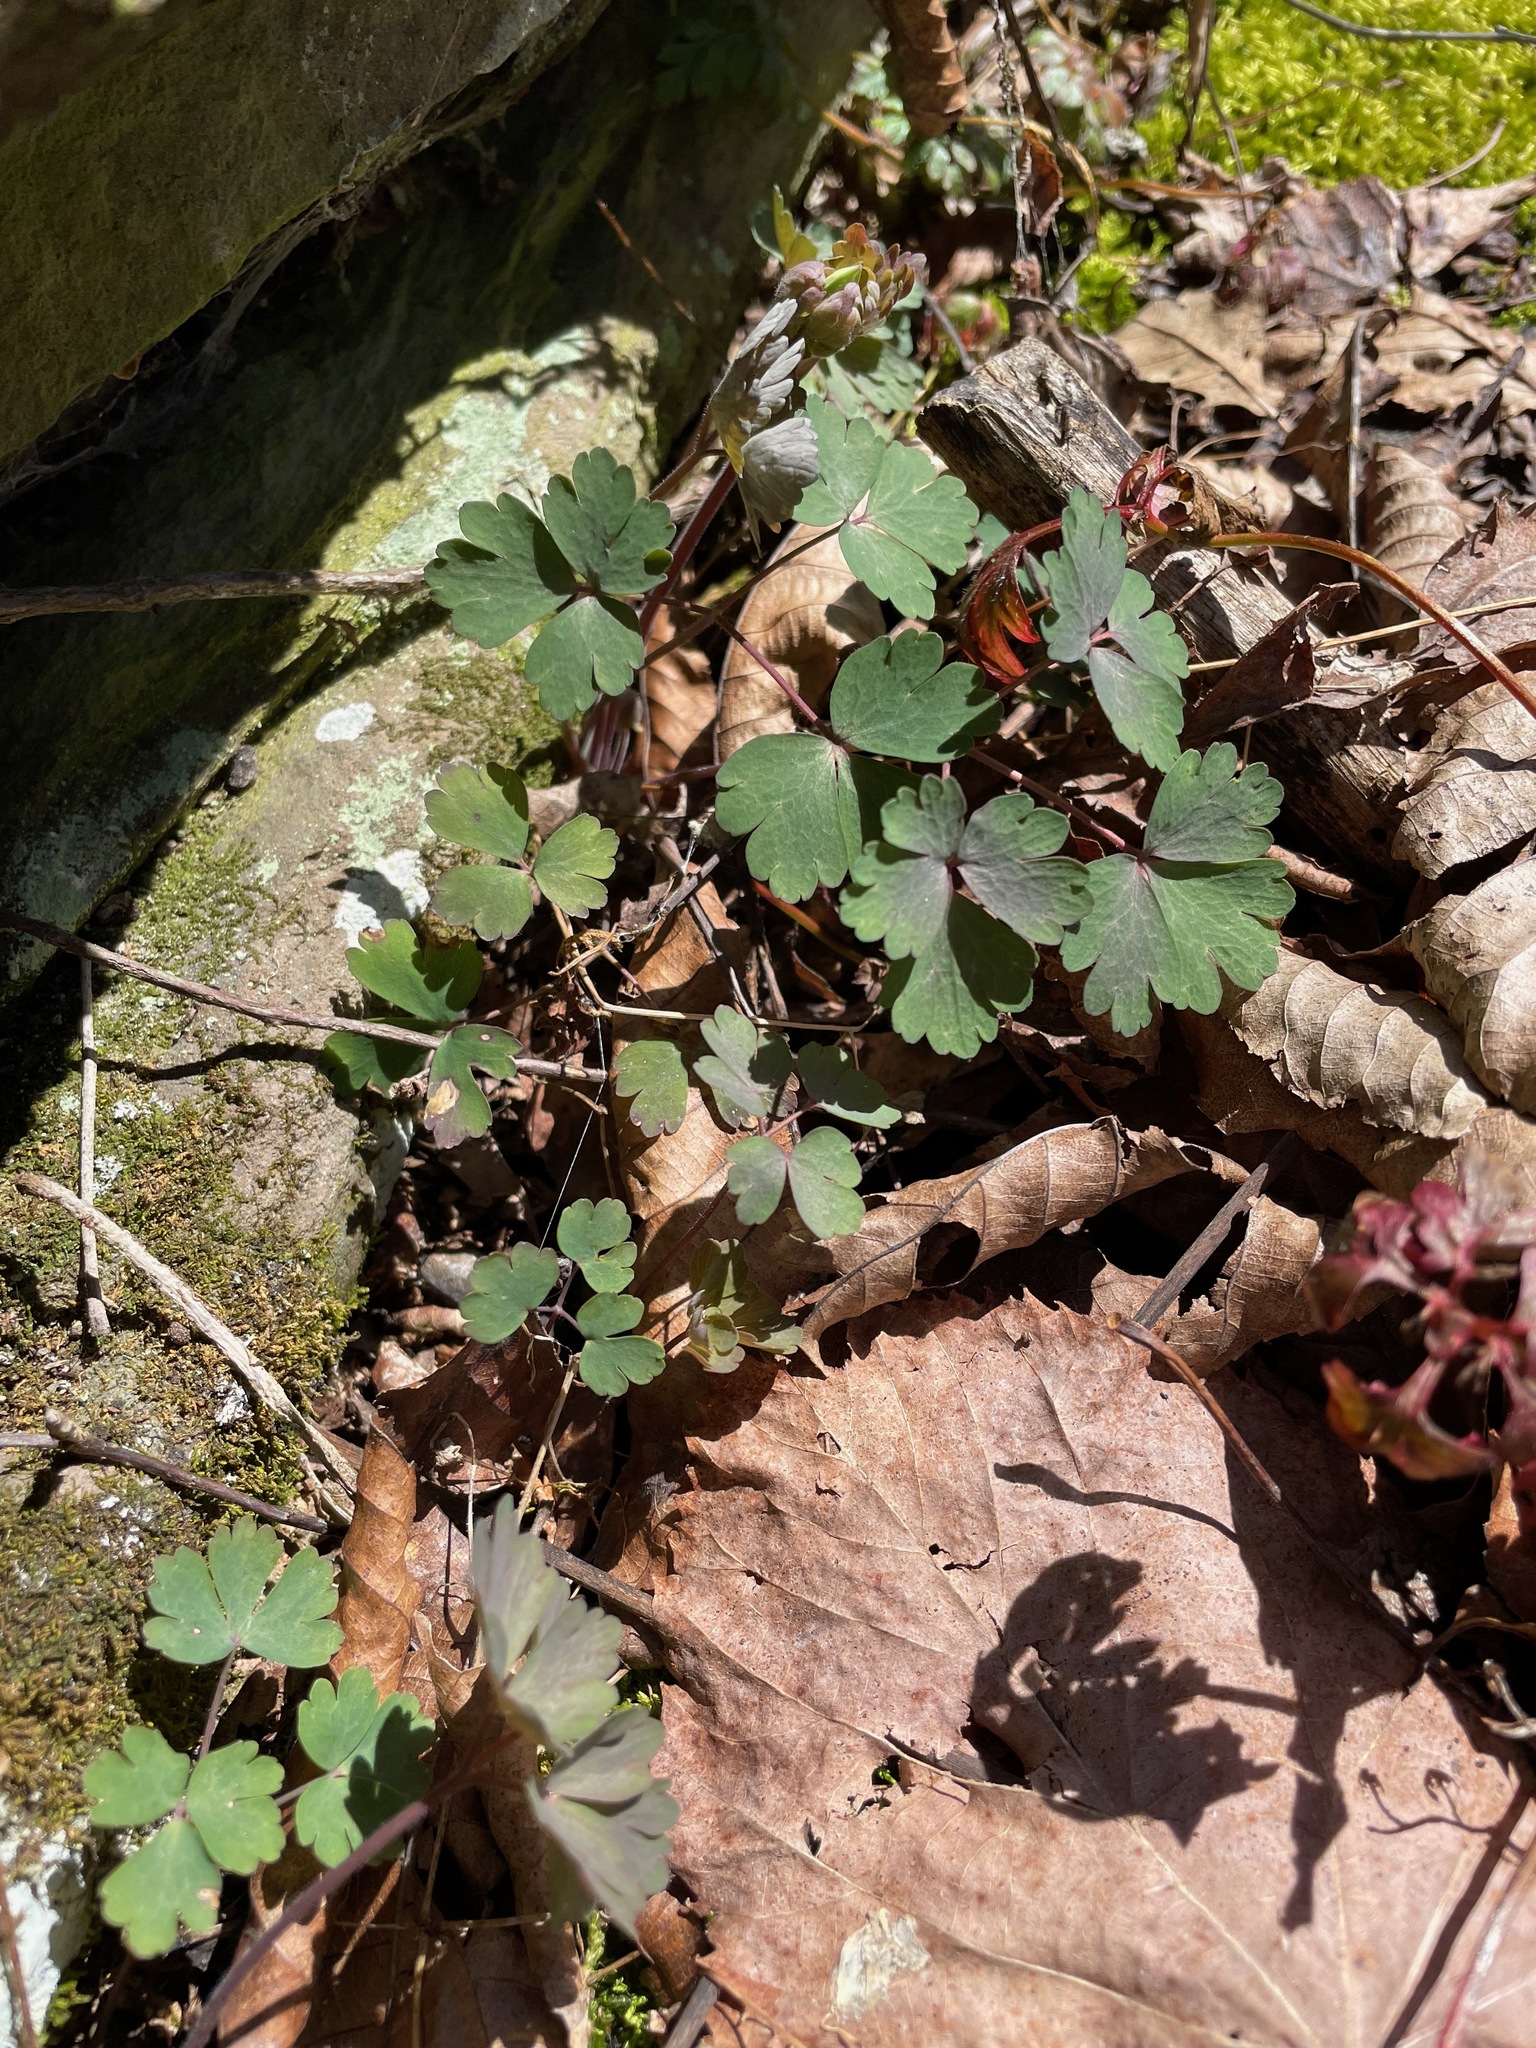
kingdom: Plantae
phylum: Tracheophyta
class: Magnoliopsida
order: Ranunculales
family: Ranunculaceae
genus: Aquilegia
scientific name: Aquilegia canadensis
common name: American columbine
